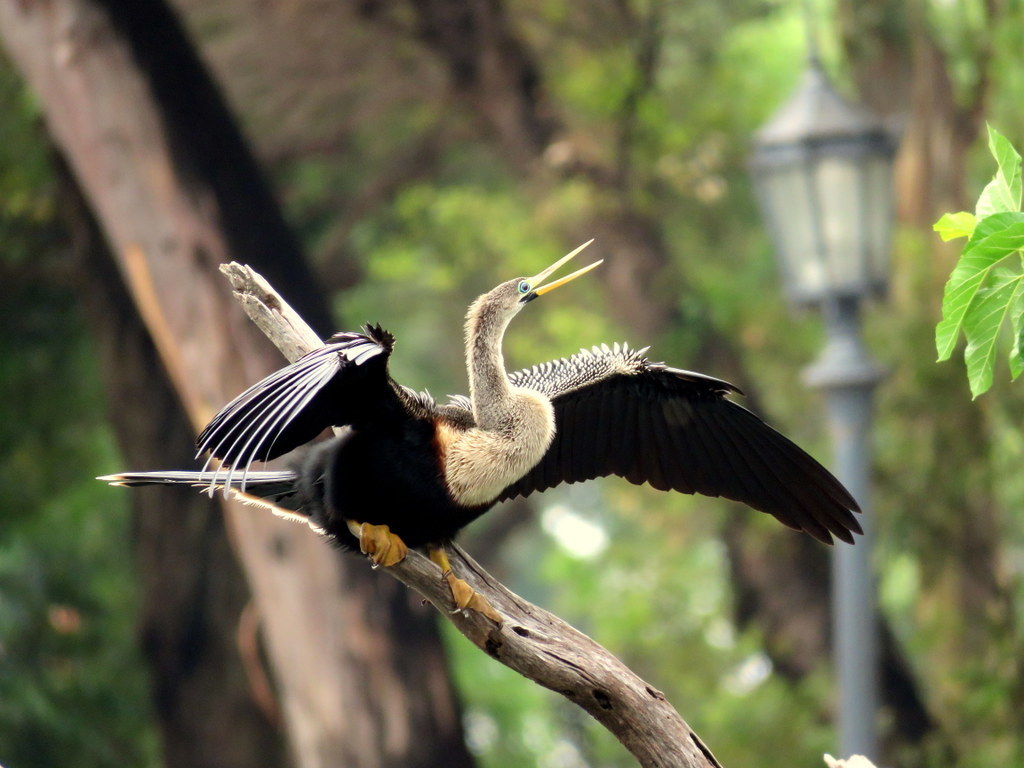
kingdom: Animalia
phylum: Chordata
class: Aves
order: Suliformes
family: Anhingidae
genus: Anhinga
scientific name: Anhinga anhinga
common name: Anhinga
